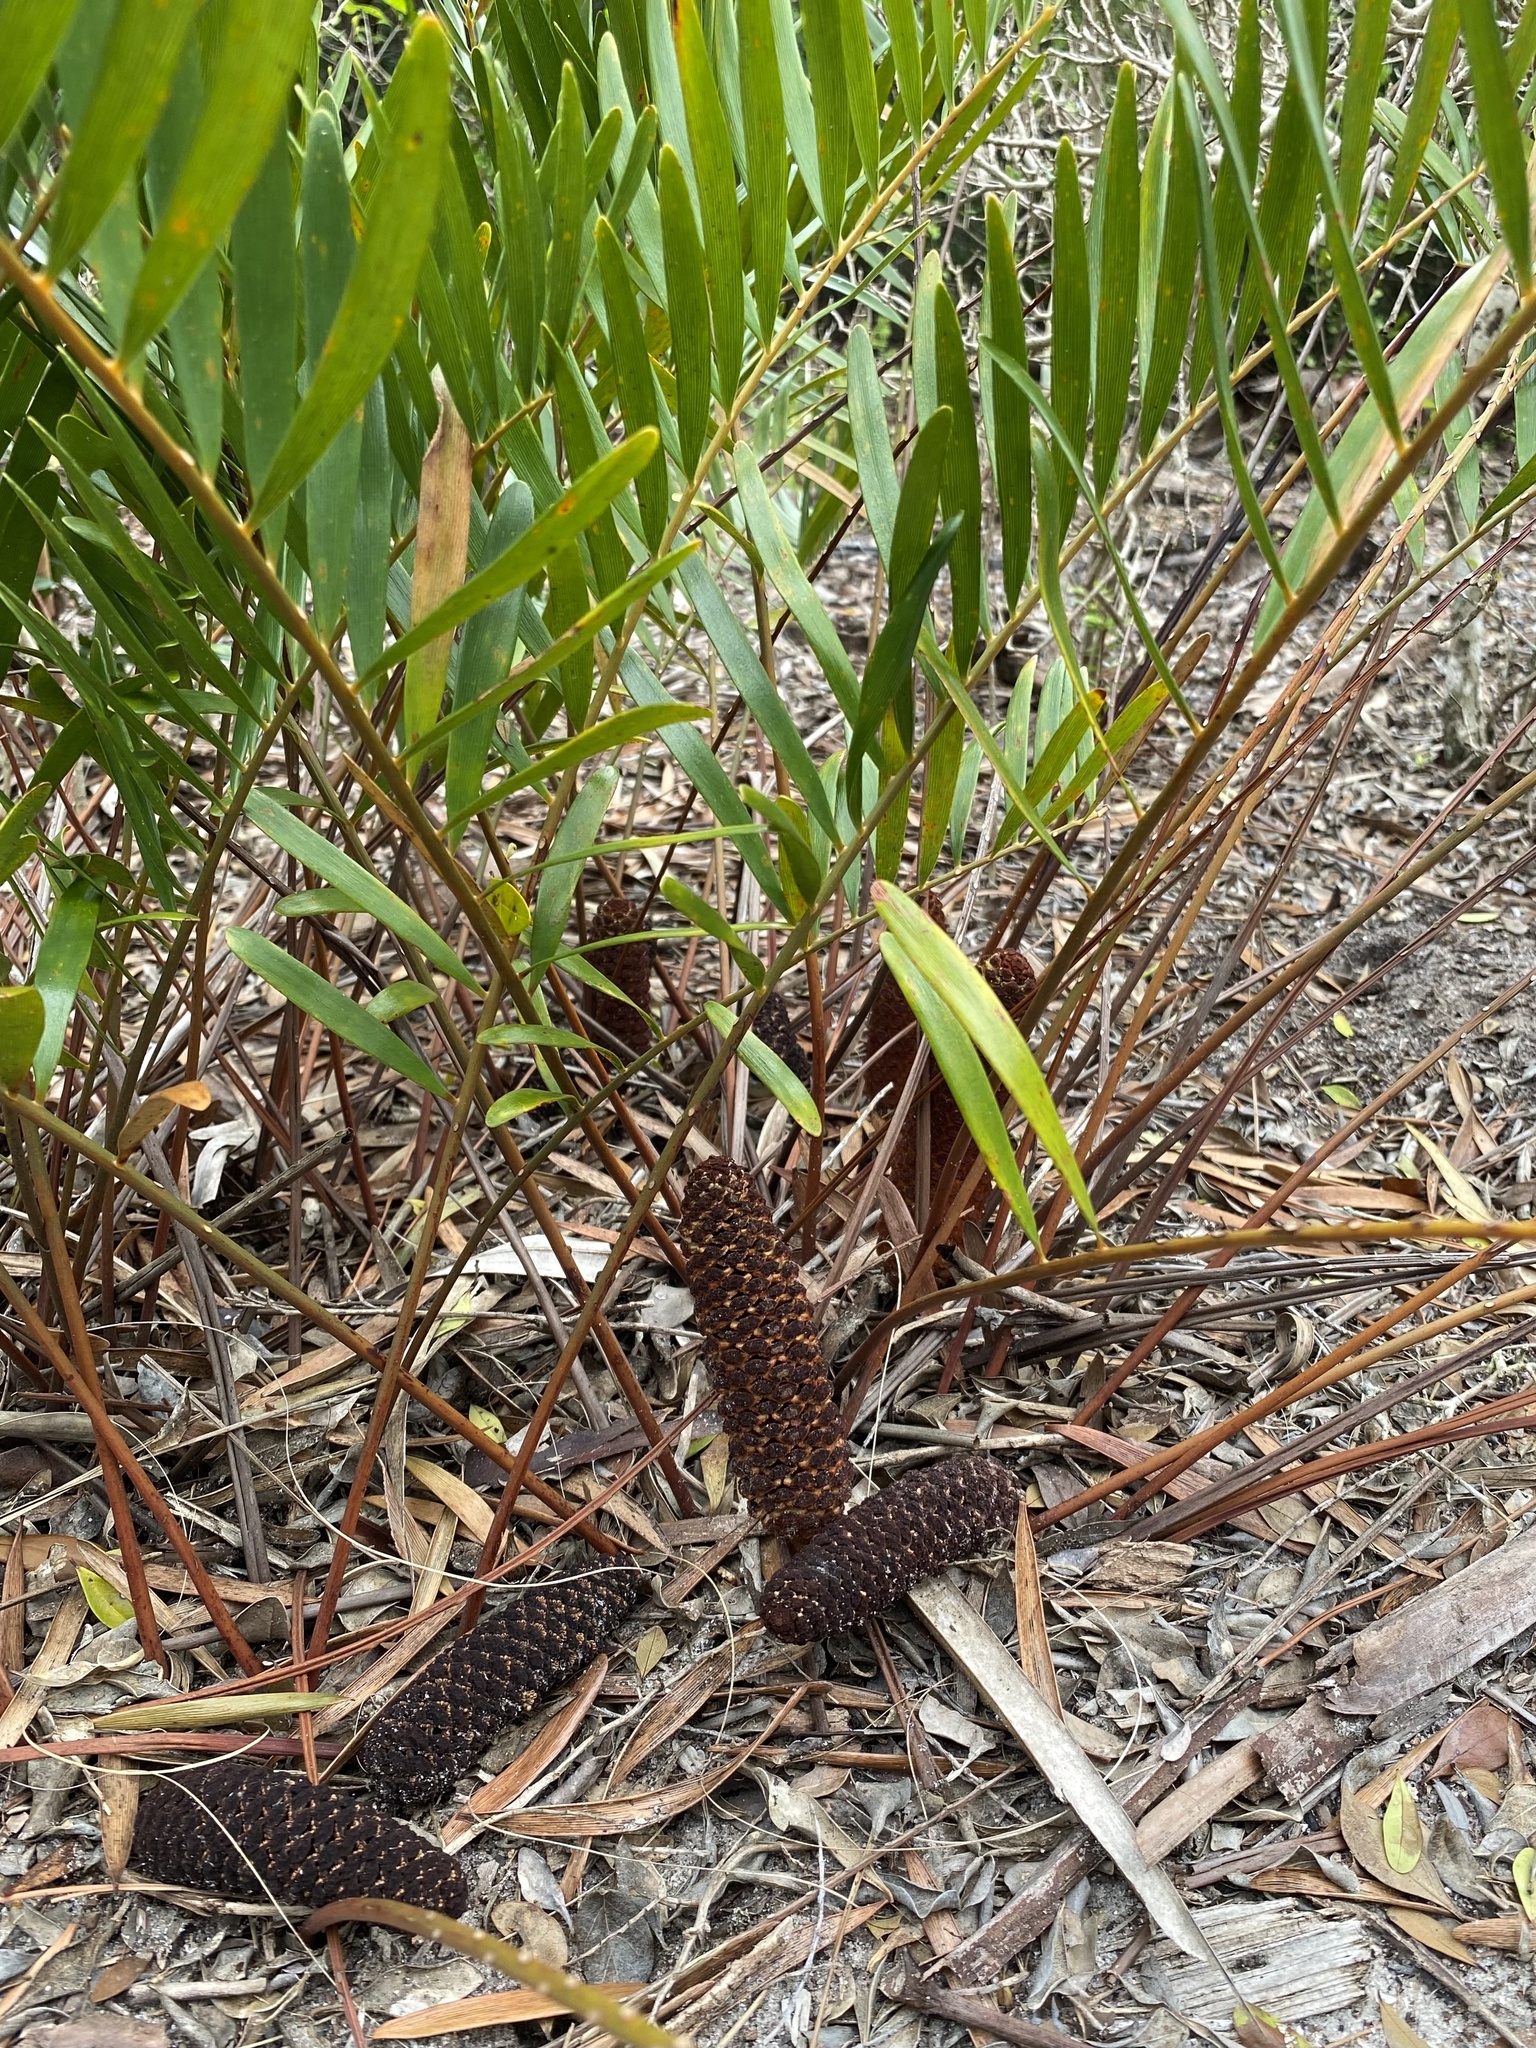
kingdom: Plantae
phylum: Tracheophyta
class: Cycadopsida
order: Cycadales
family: Zamiaceae
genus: Zamia
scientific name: Zamia integrifolia
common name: Florida arrowroot
